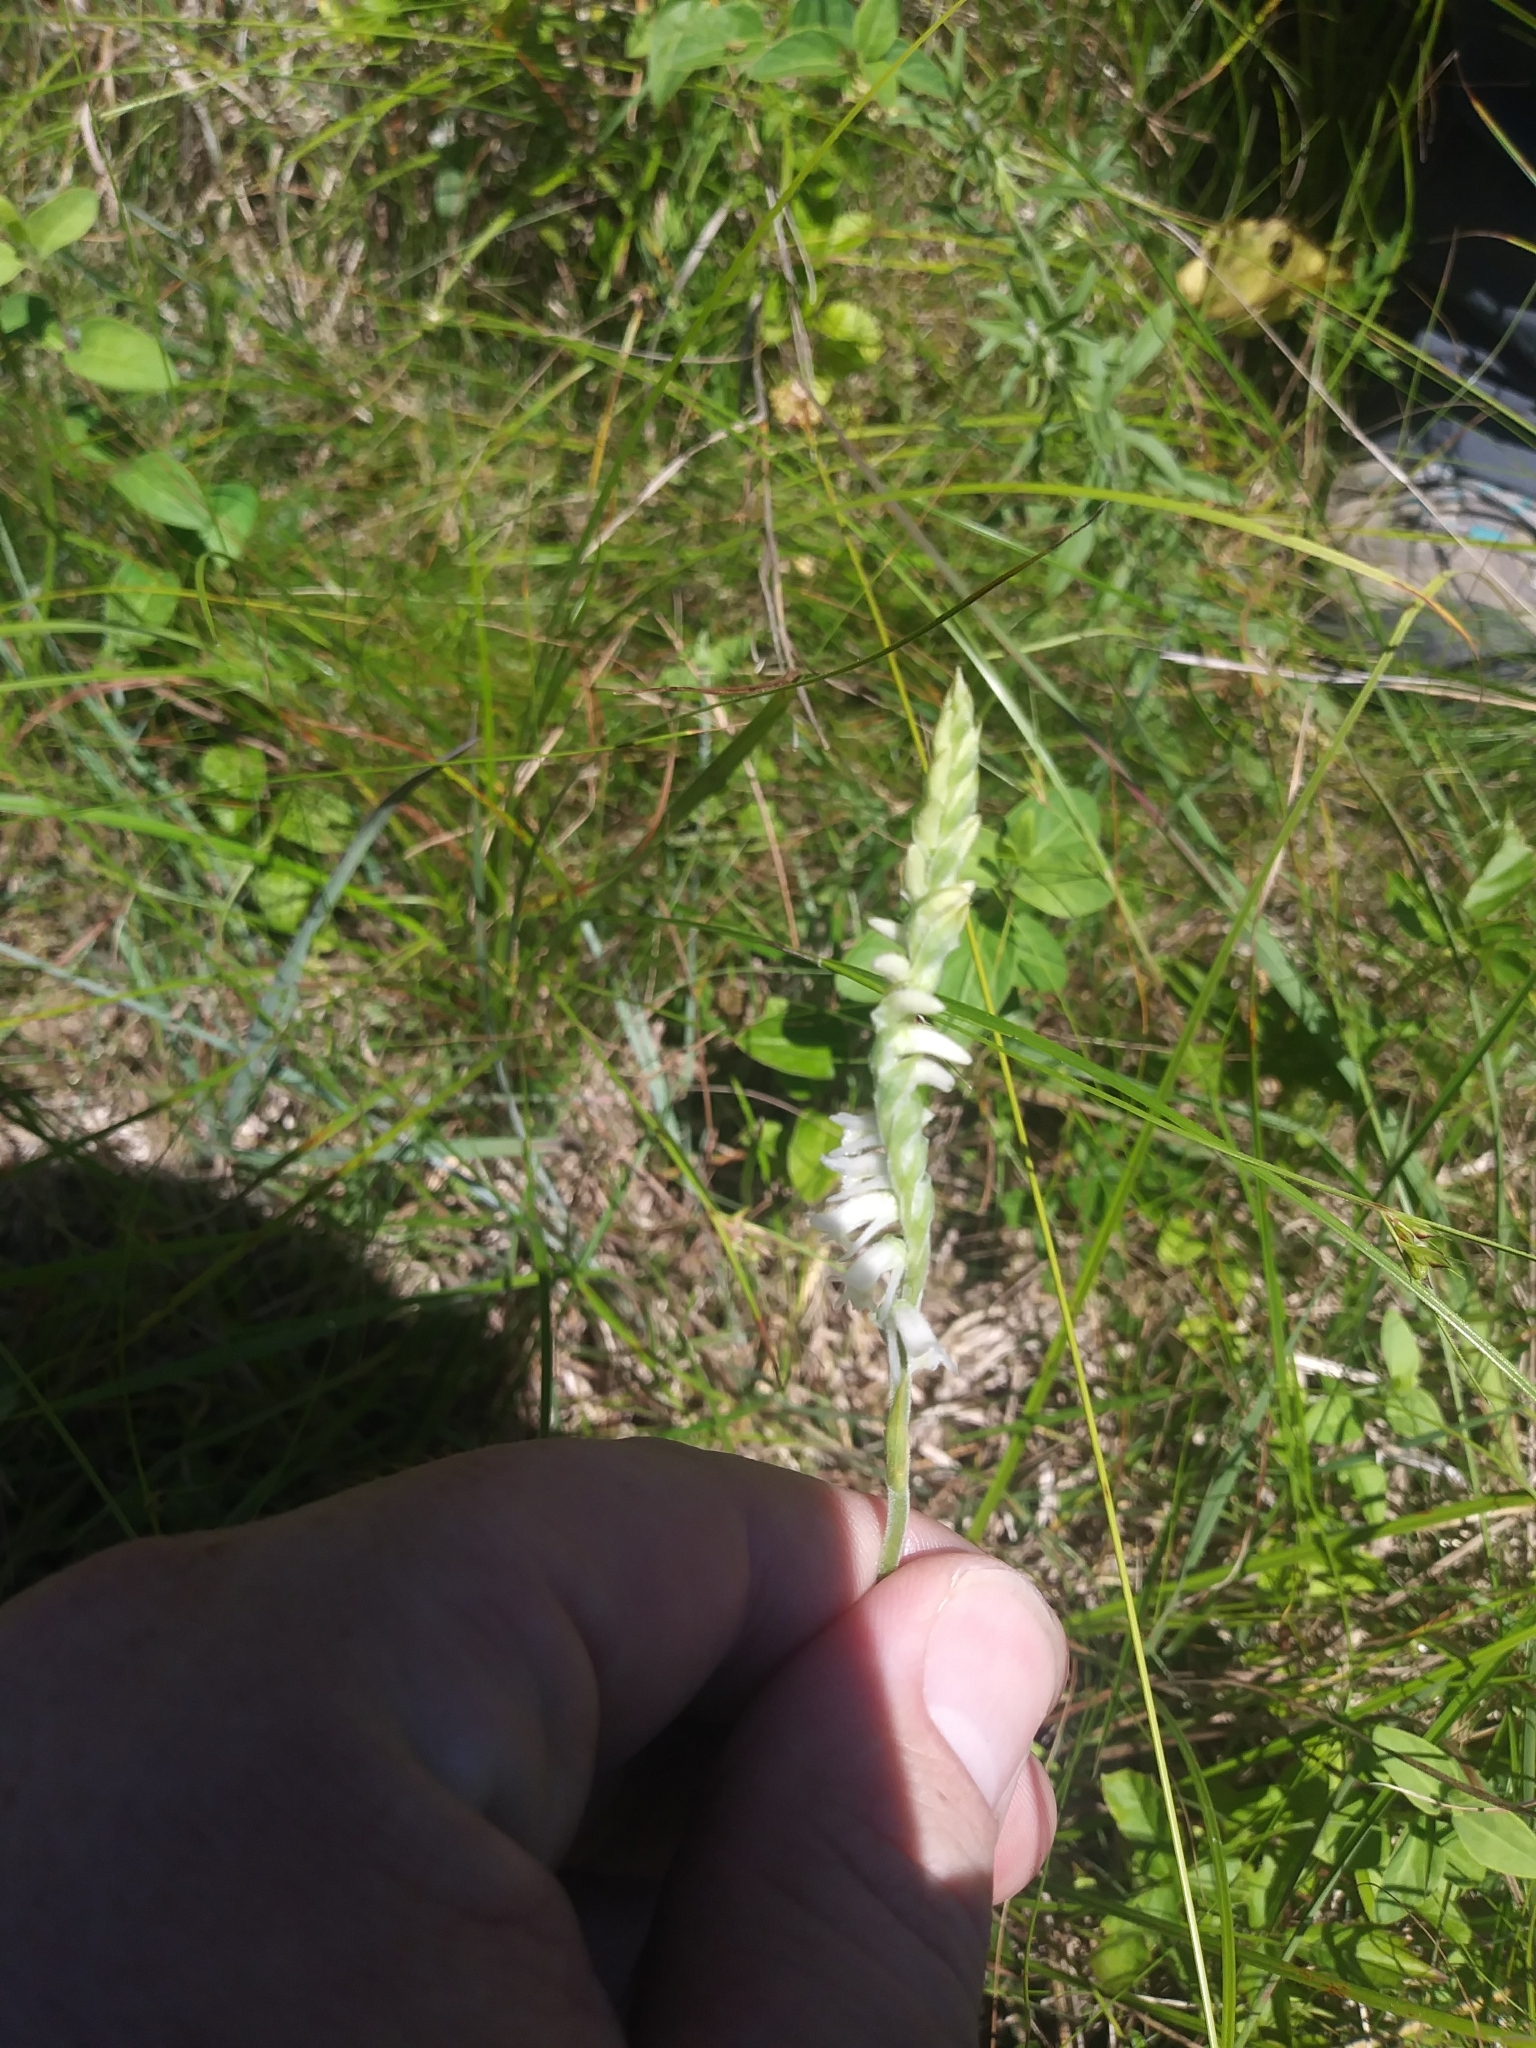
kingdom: Plantae
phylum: Tracheophyta
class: Liliopsida
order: Asparagales
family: Orchidaceae
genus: Spiranthes
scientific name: Spiranthes vernalis
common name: Spring ladies'-tresses
